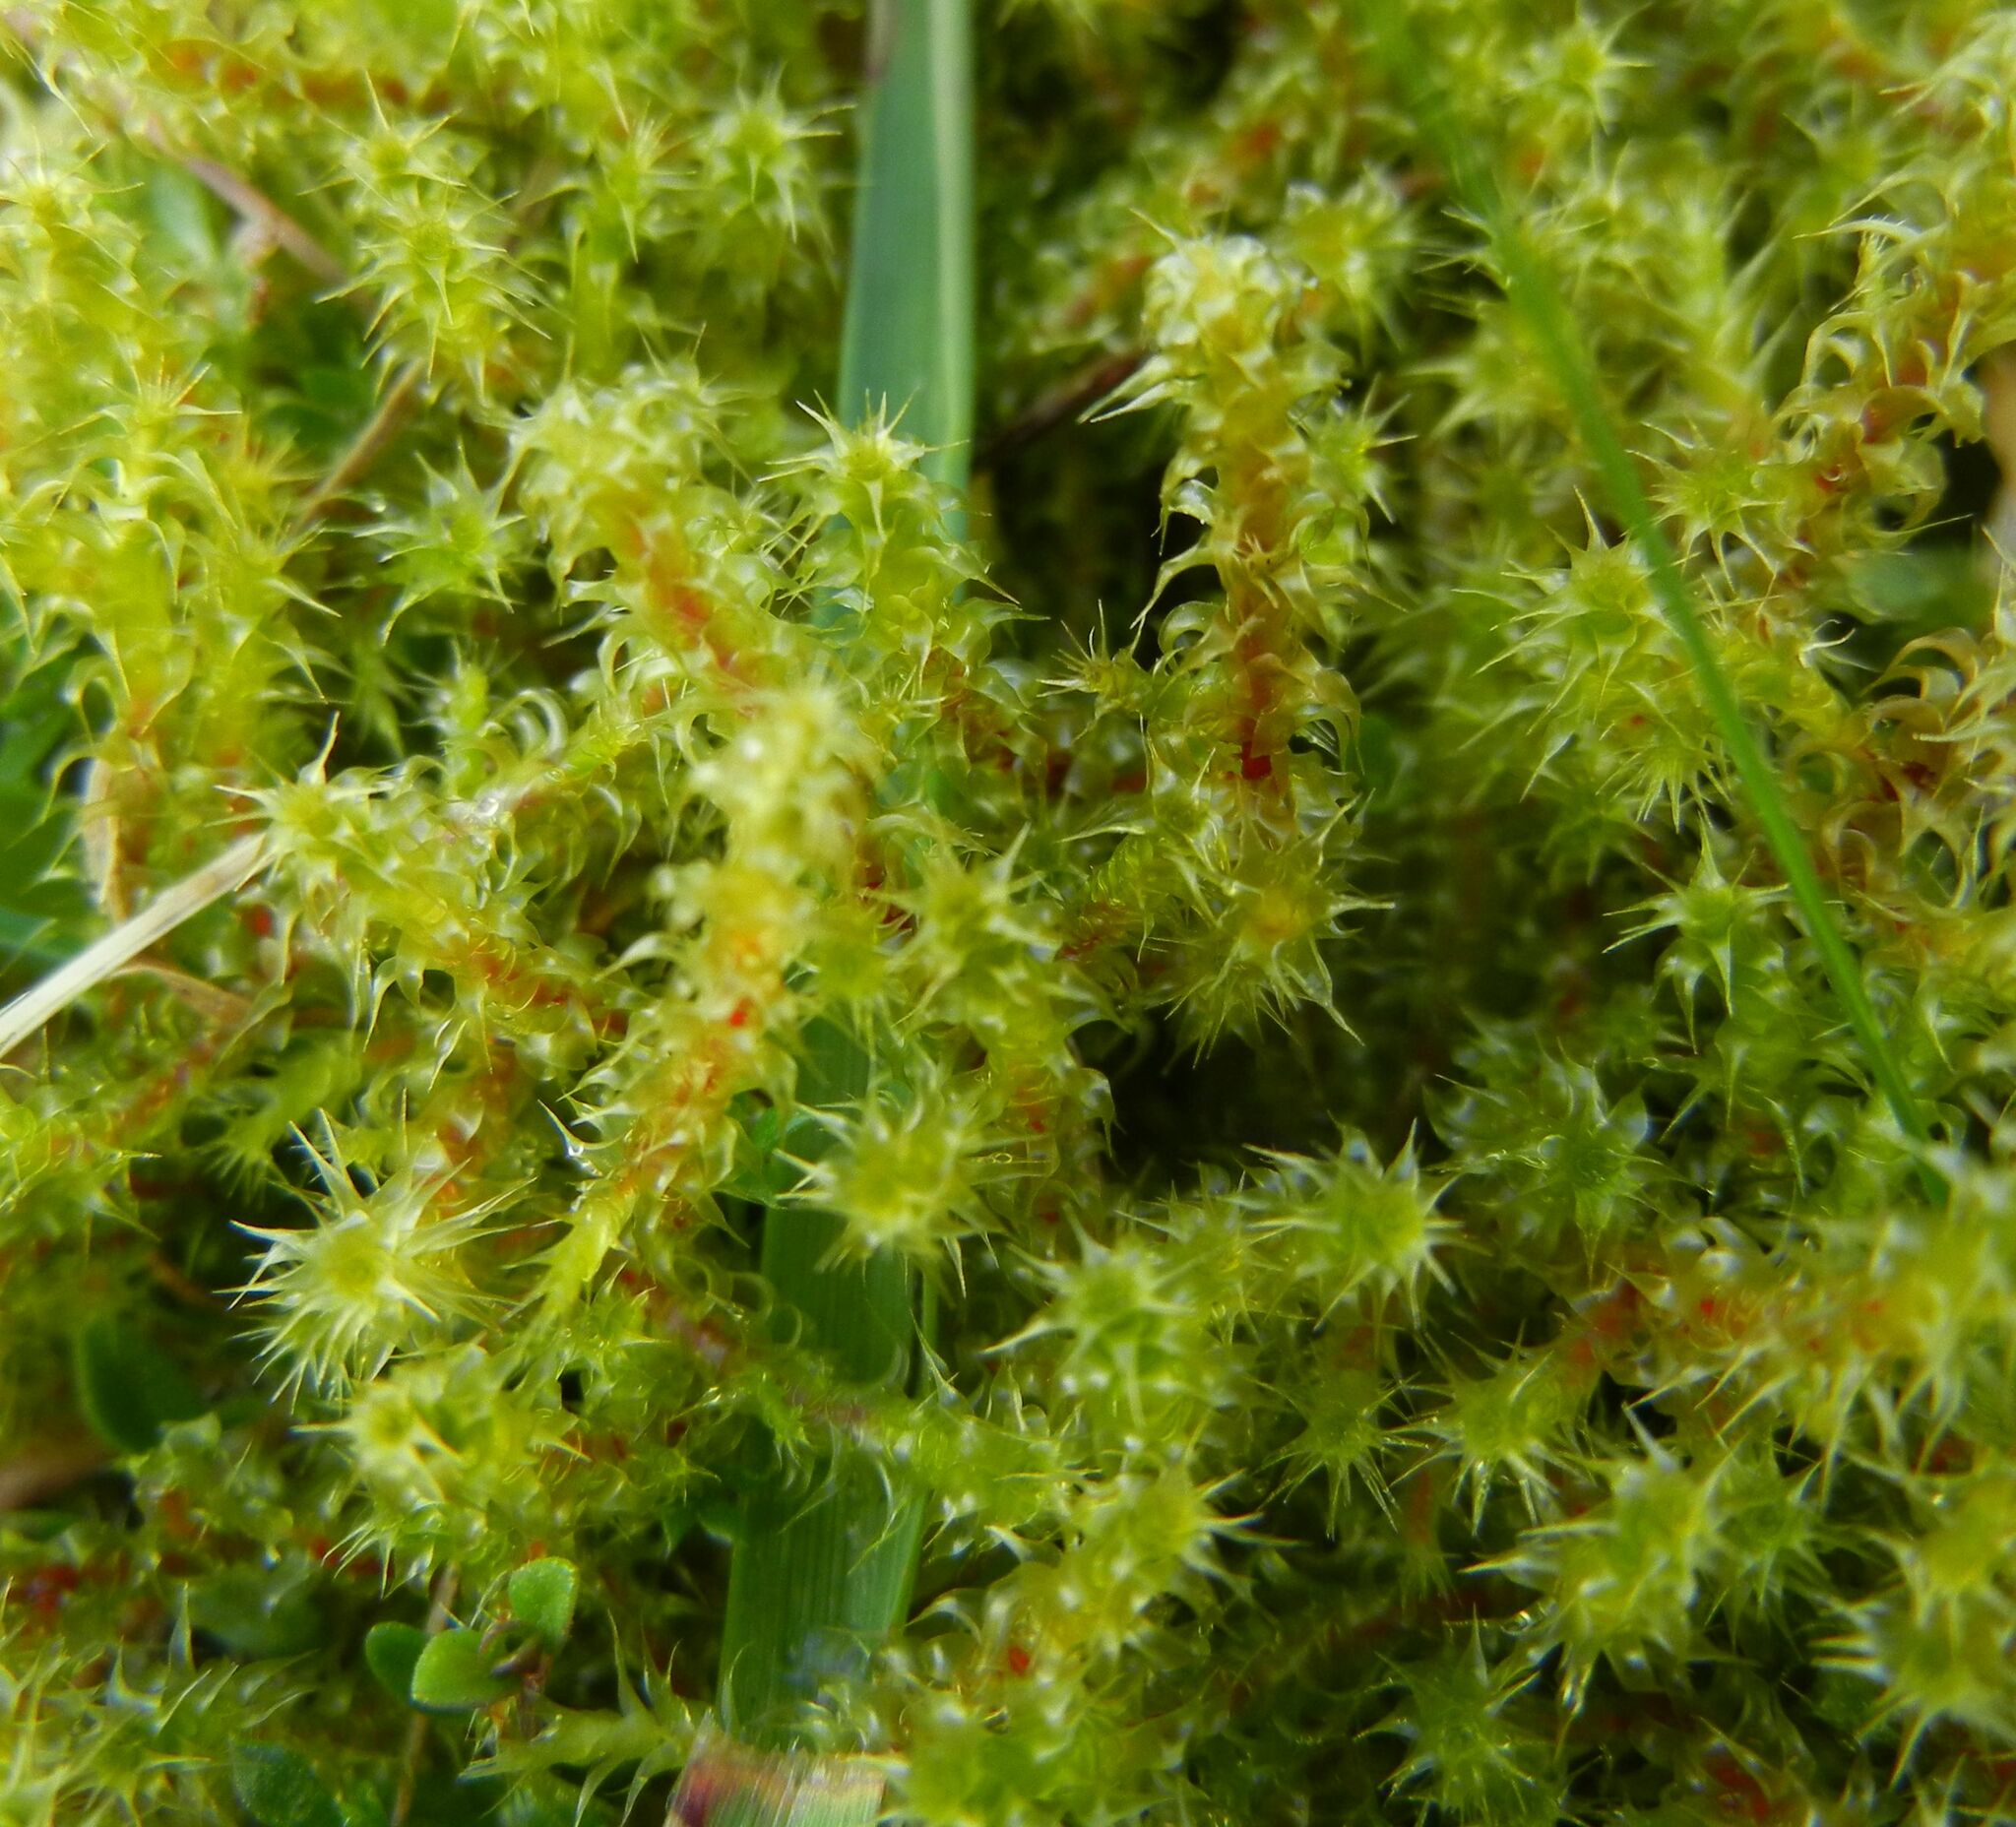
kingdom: Plantae
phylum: Bryophyta
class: Bryopsida
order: Hypnales
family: Hylocomiaceae
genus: Rhytidiadelphus
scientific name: Rhytidiadelphus squarrosus
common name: Springy turf-moss
